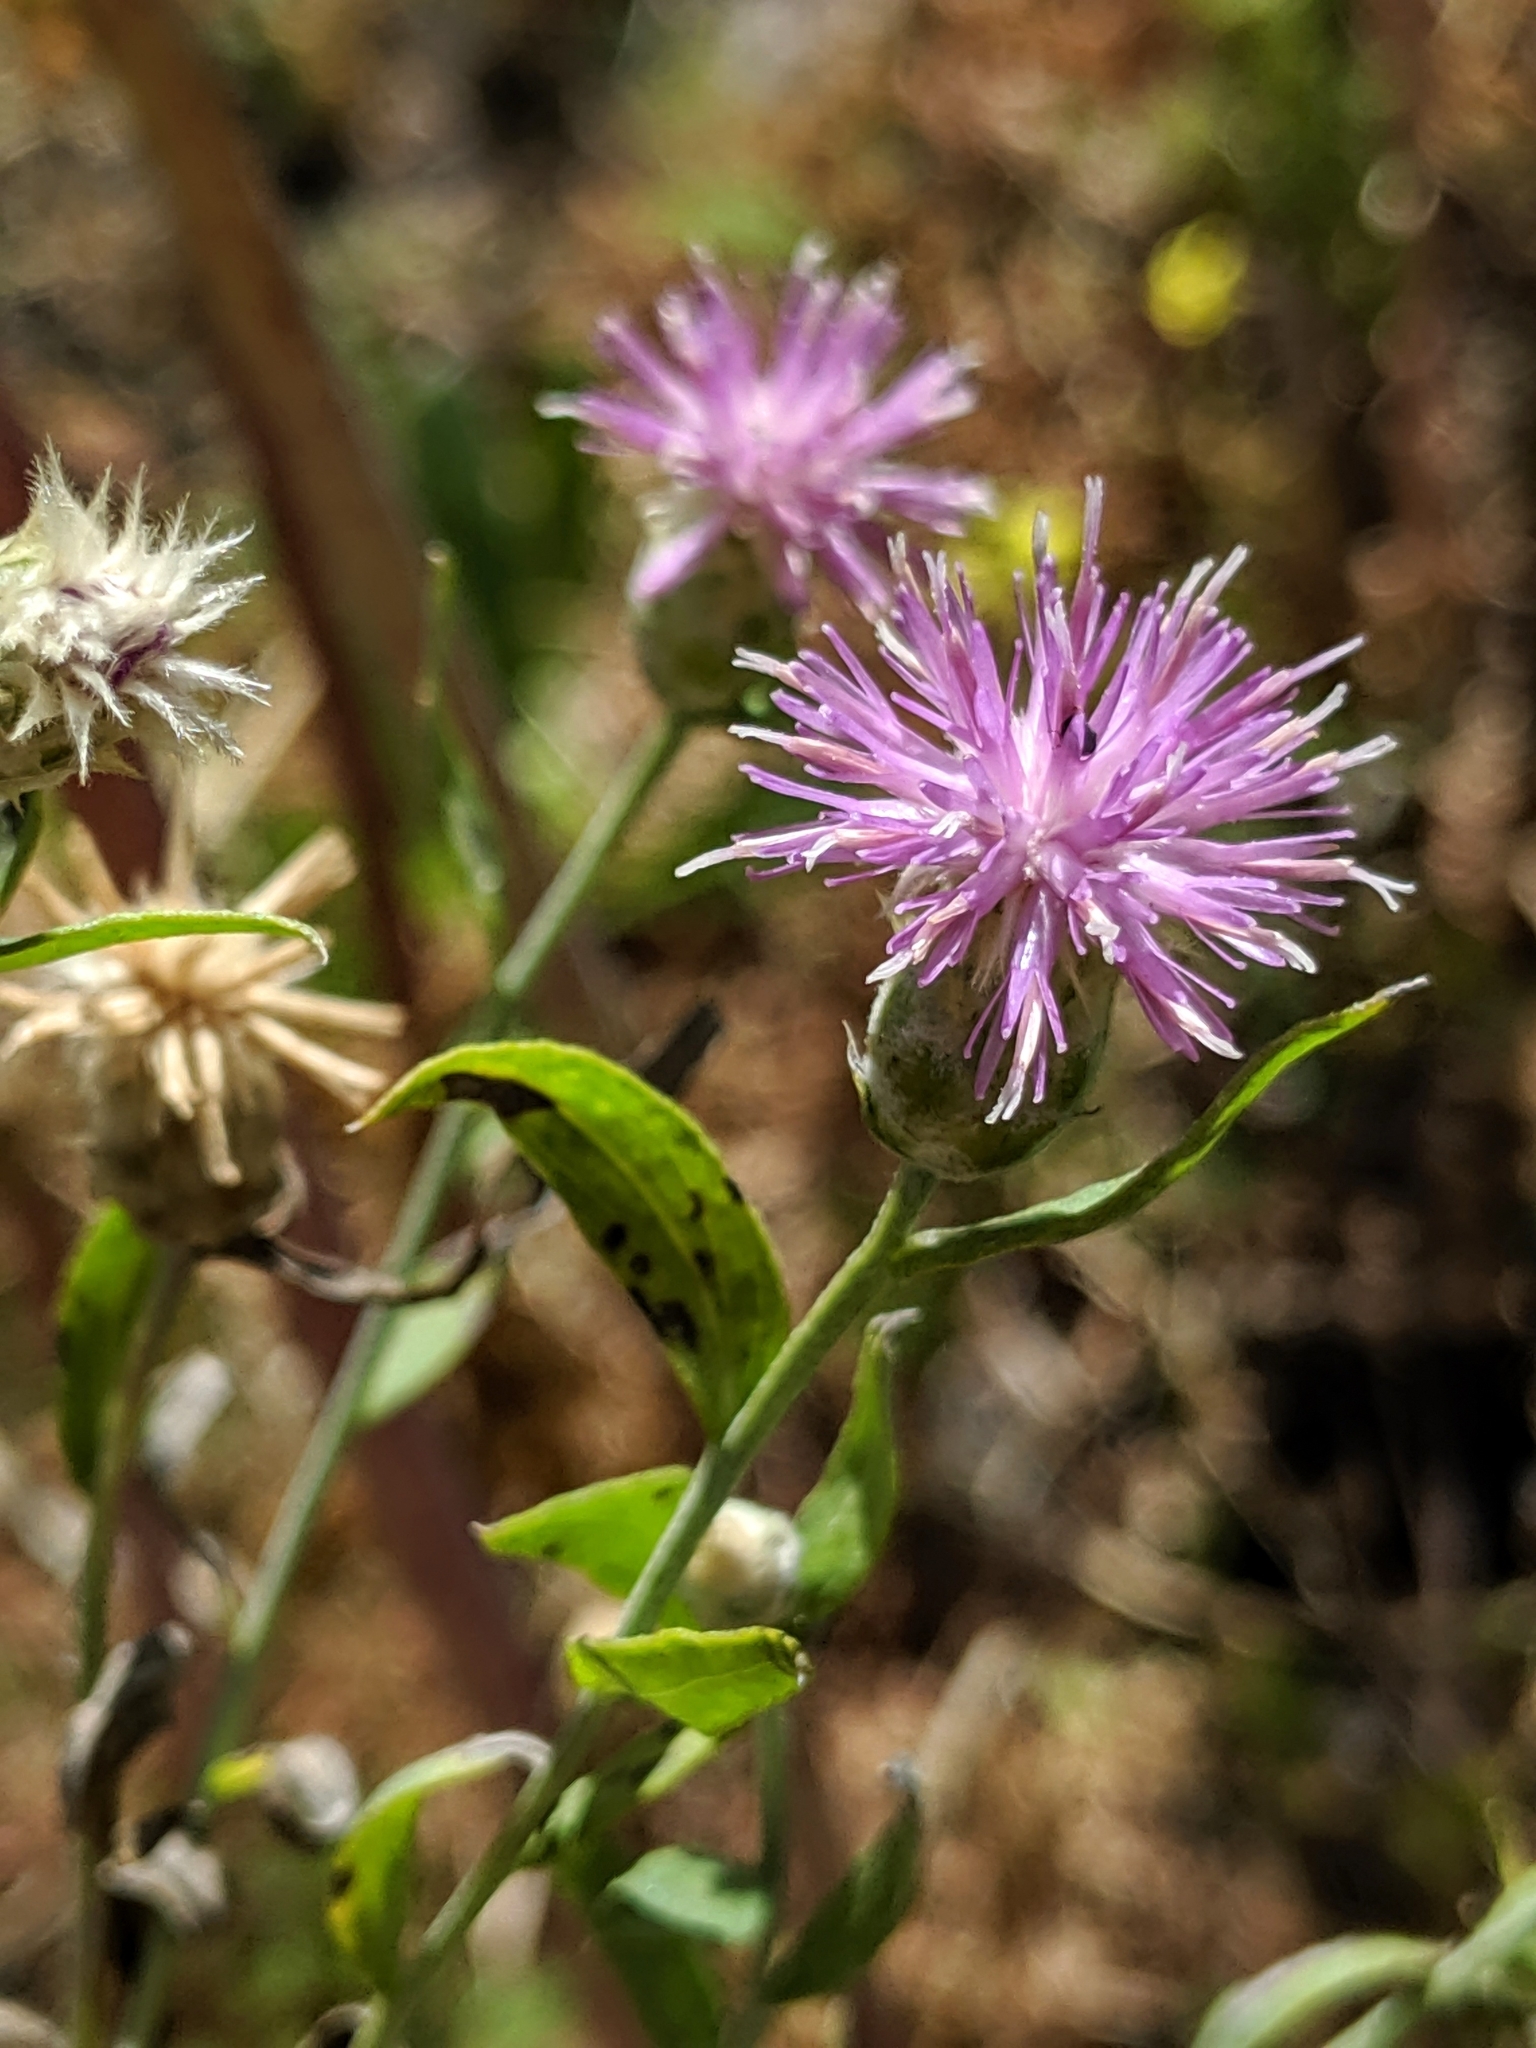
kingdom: Plantae
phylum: Tracheophyta
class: Magnoliopsida
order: Asterales
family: Asteraceae
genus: Leuzea
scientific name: Leuzea repens
